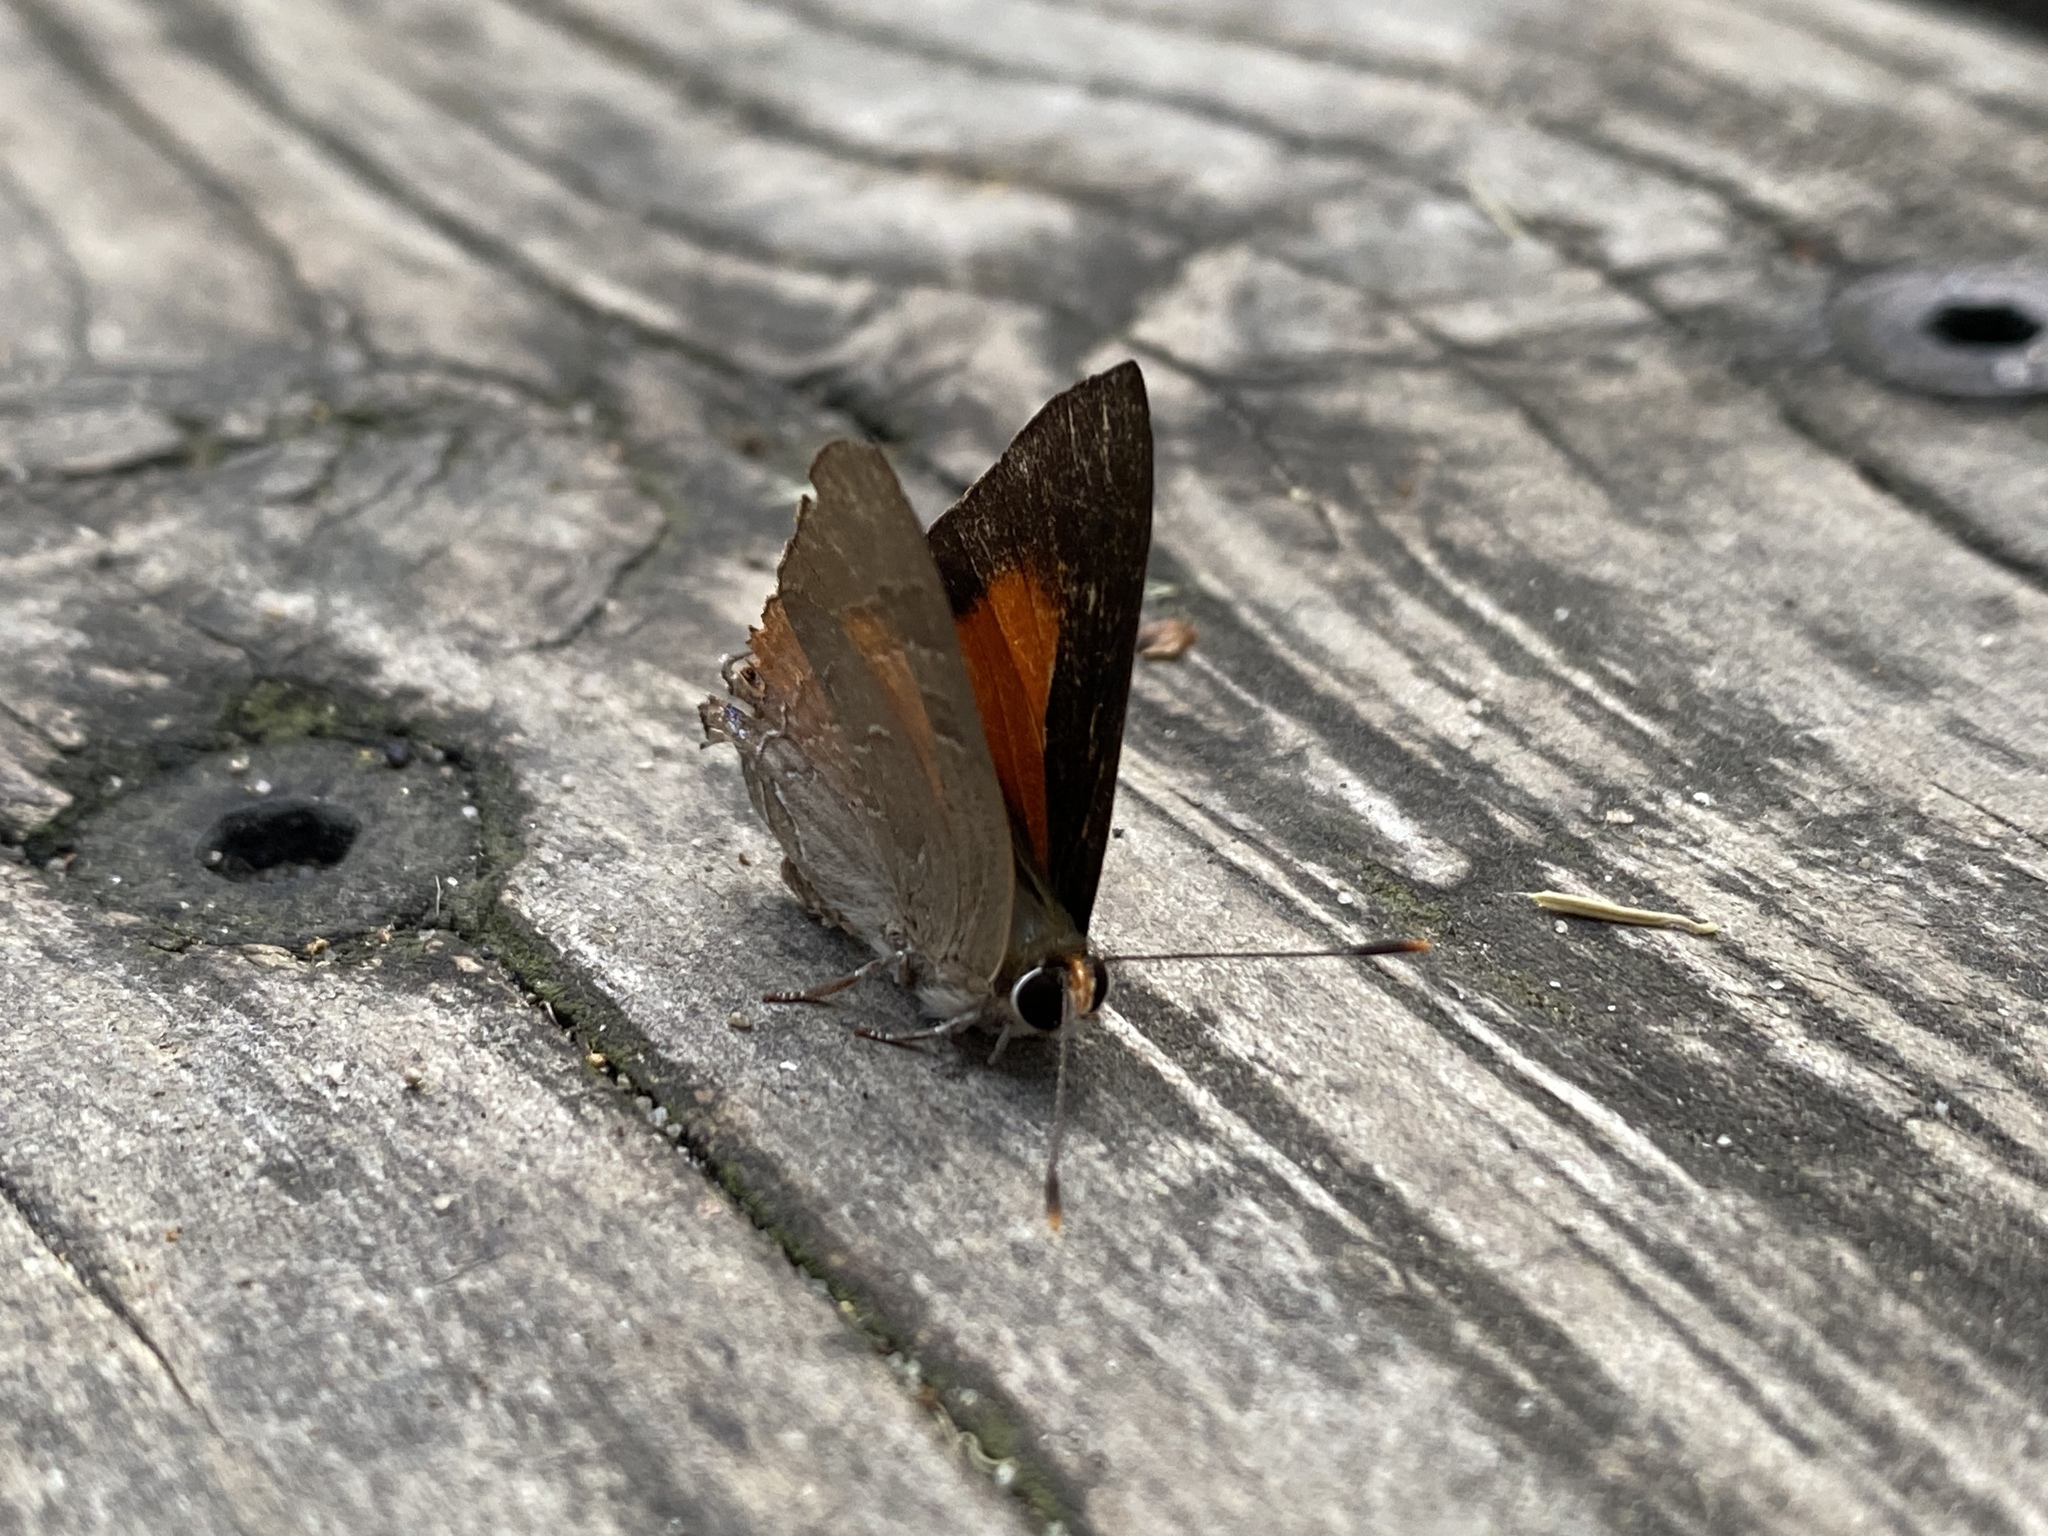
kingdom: Animalia
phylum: Arthropoda
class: Insecta
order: Lepidoptera
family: Lycaenidae
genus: Deudorix
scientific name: Deudorix diovis
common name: Bright cornelian
